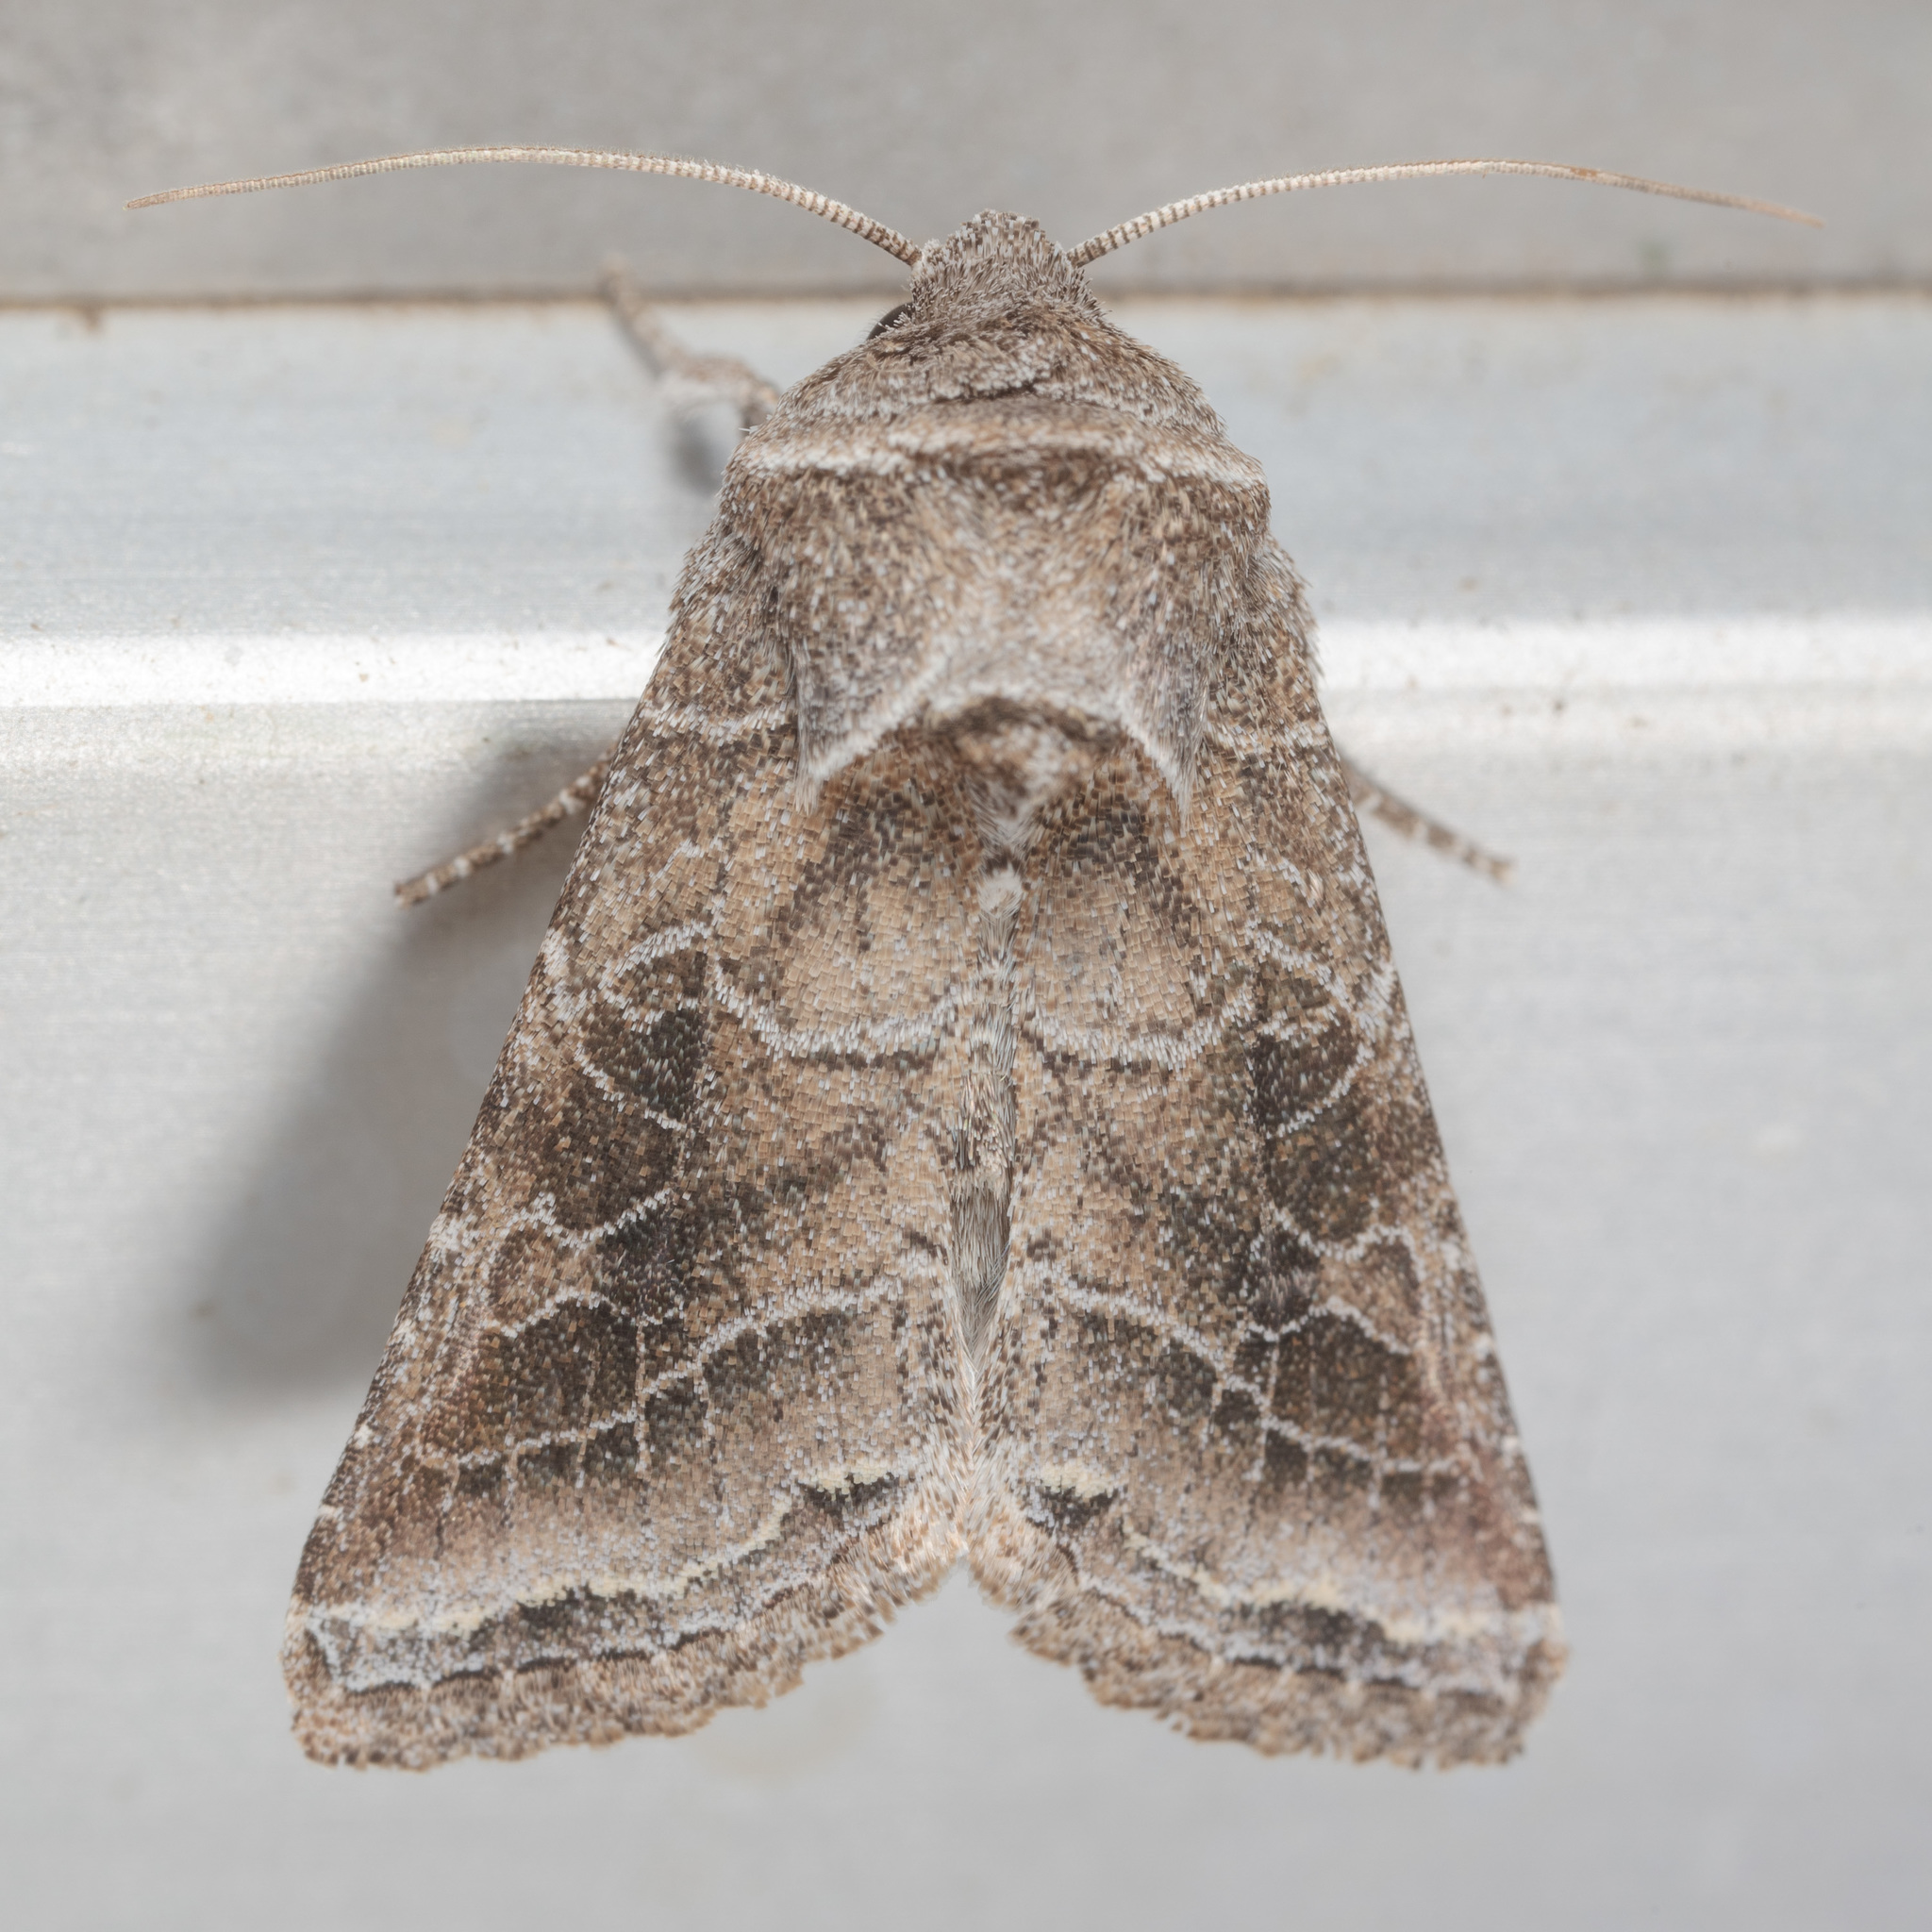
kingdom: Animalia
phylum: Arthropoda
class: Insecta
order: Lepidoptera
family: Noctuidae
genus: Lacinipolia
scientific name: Lacinipolia erecta
